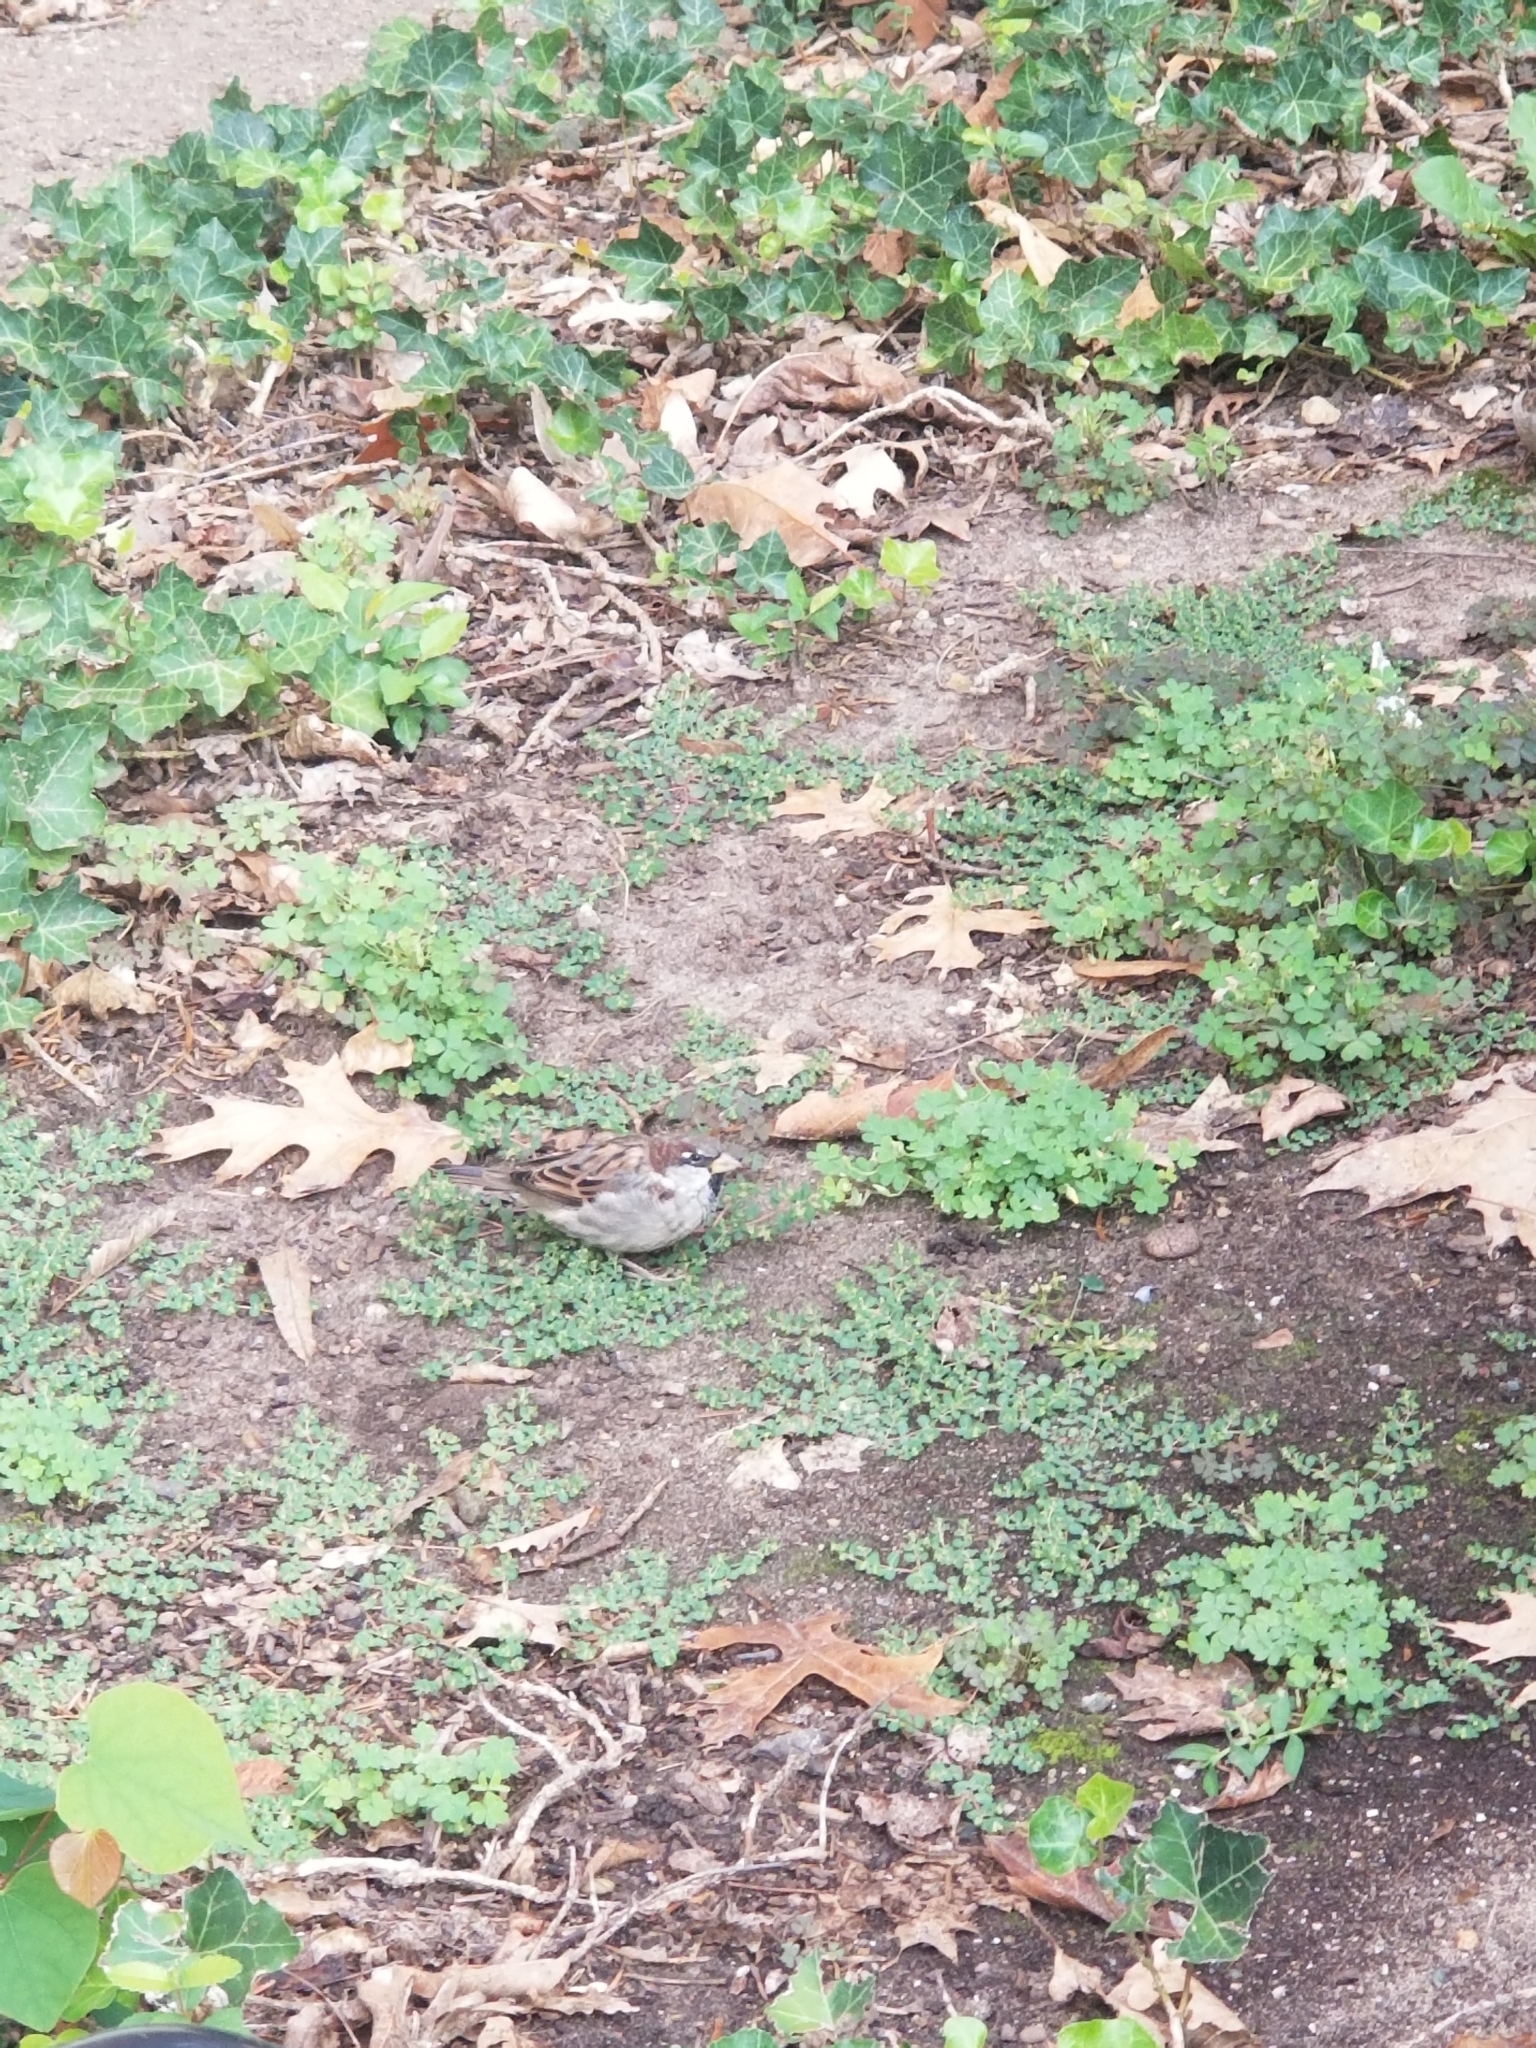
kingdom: Animalia
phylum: Chordata
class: Aves
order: Passeriformes
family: Passeridae
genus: Passer
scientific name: Passer domesticus
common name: House sparrow
